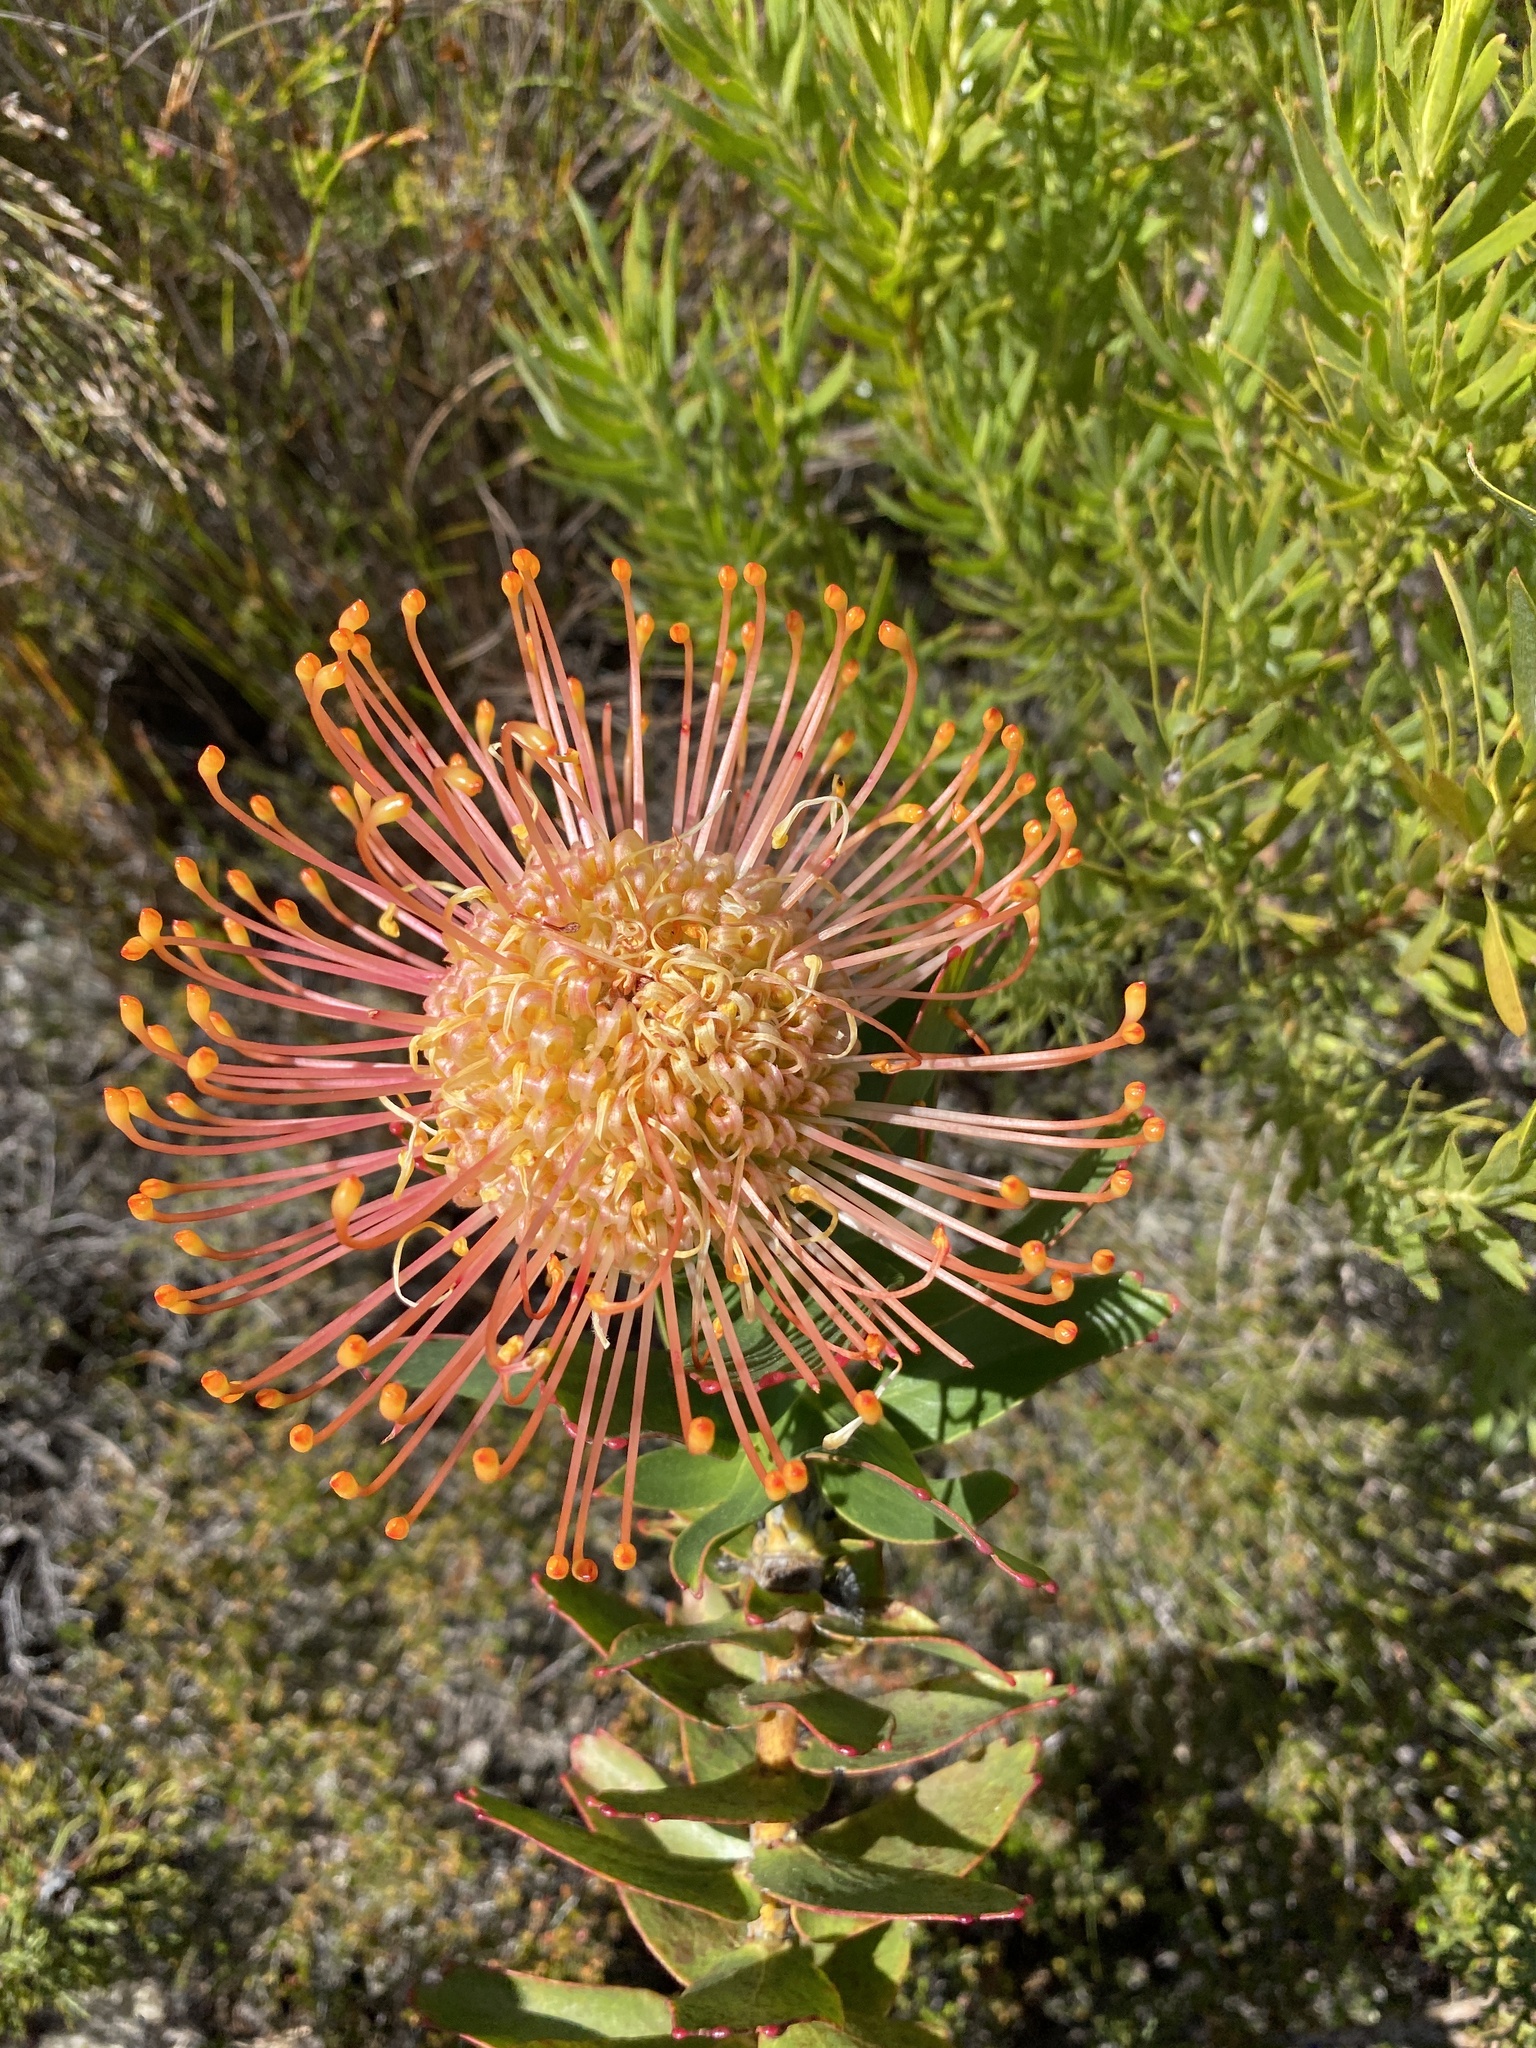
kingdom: Plantae
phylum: Tracheophyta
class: Magnoliopsida
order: Proteales
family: Proteaceae
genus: Leucospermum
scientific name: Leucospermum cordifolium
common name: Red pincushion-protea
